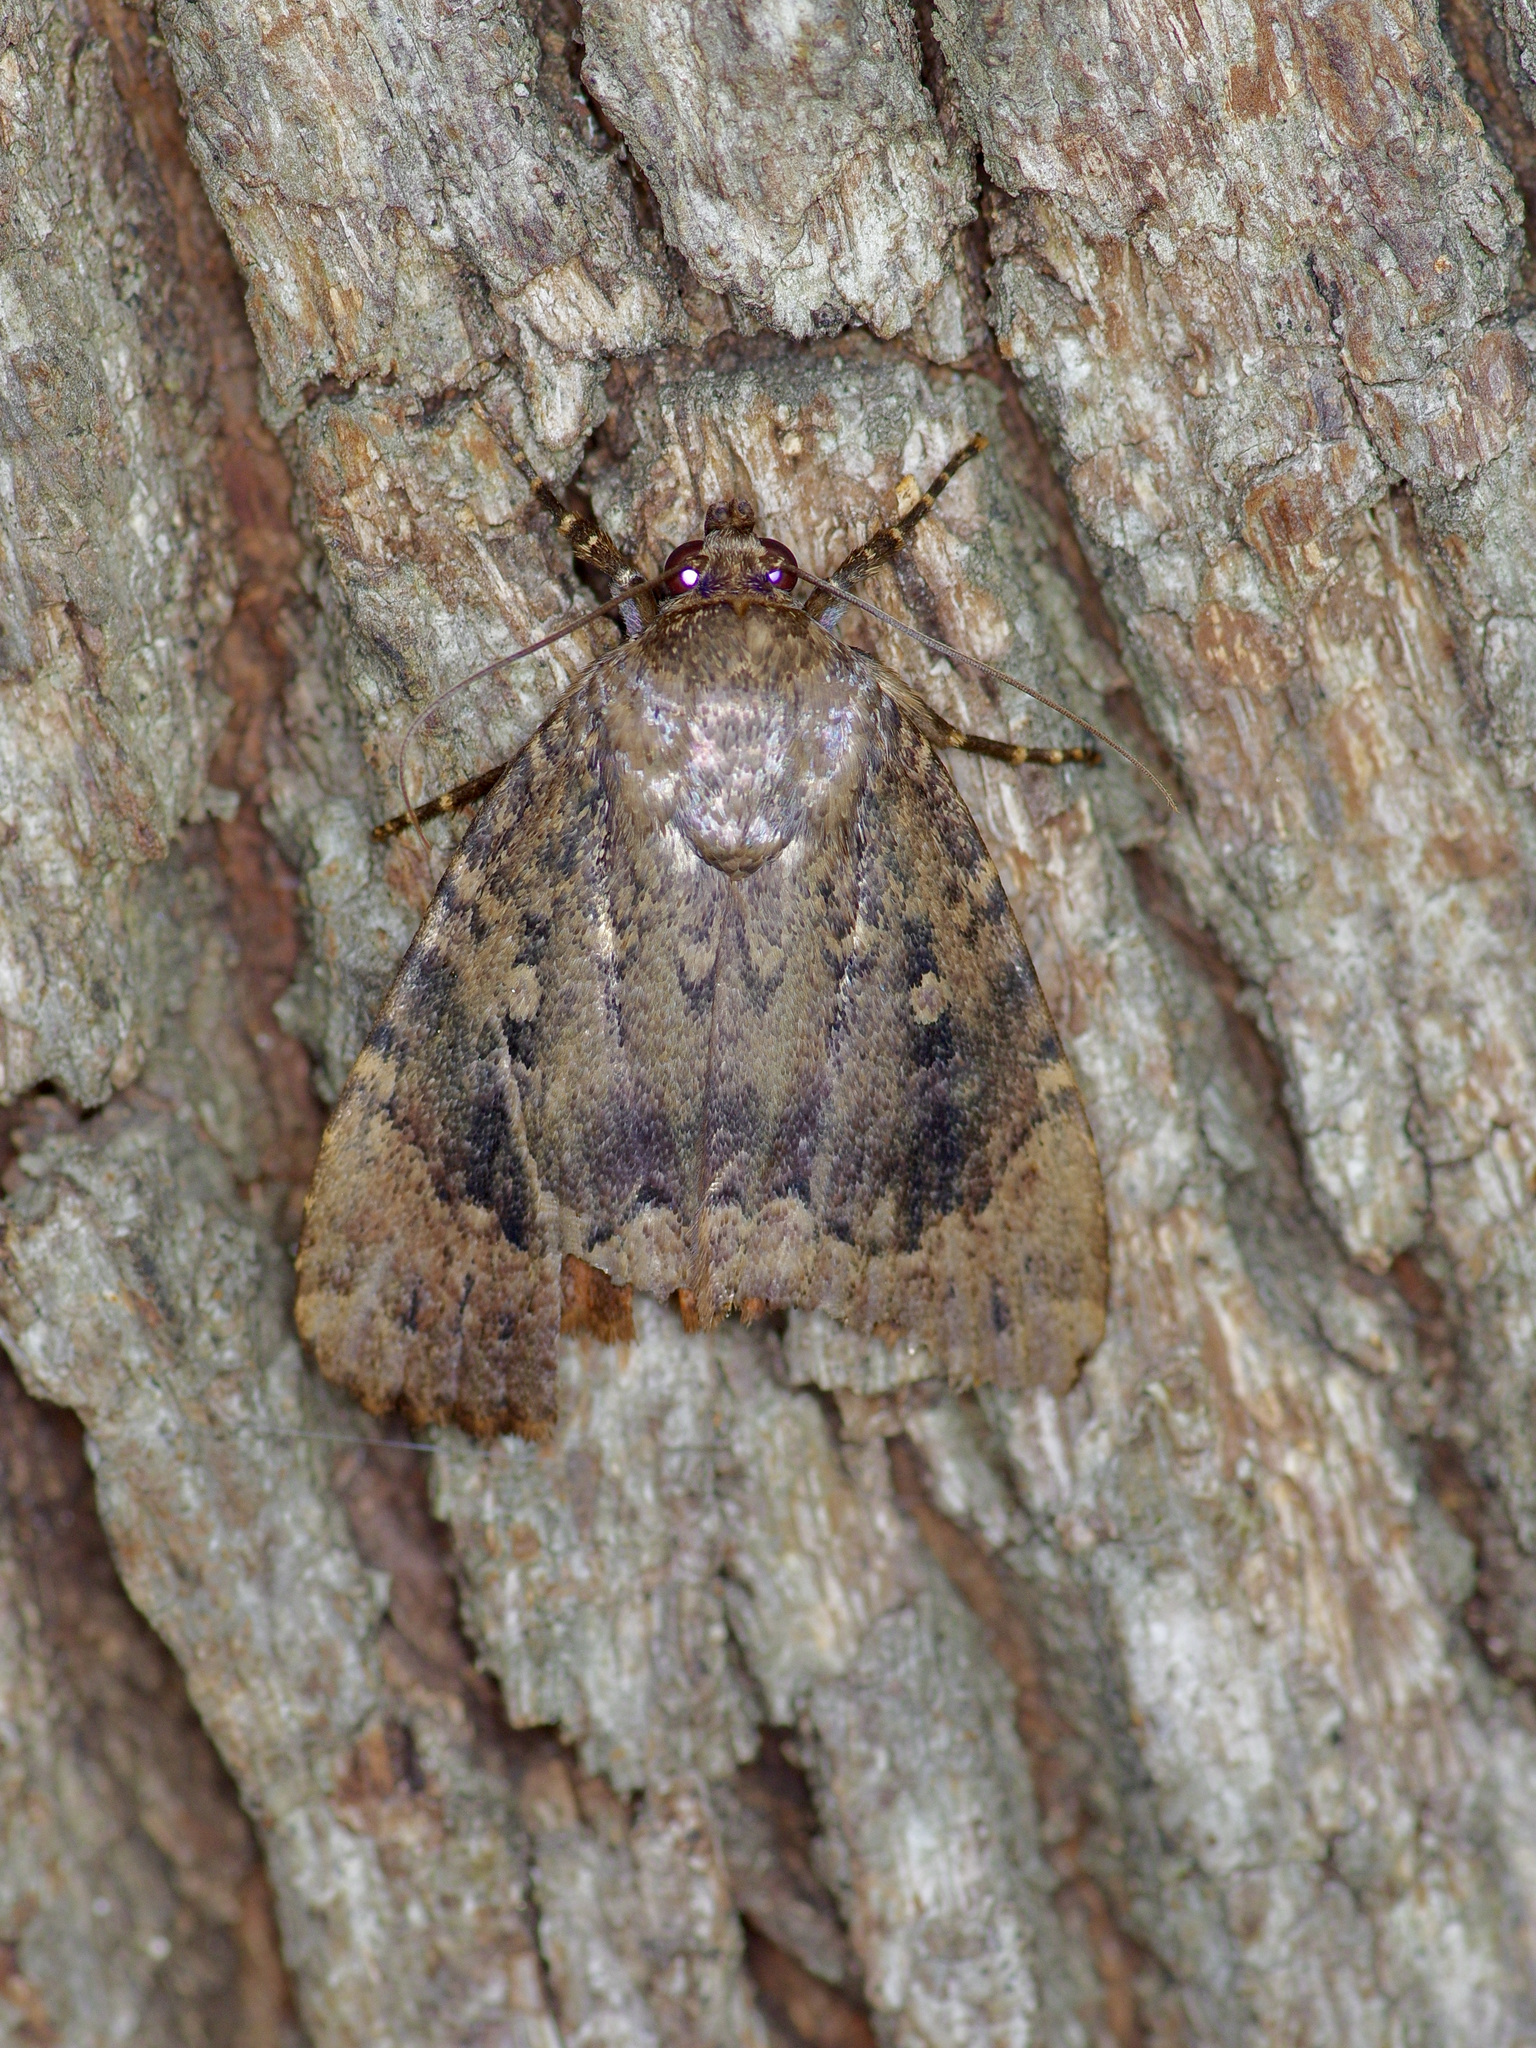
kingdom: Animalia
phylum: Arthropoda
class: Insecta
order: Lepidoptera
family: Noctuidae
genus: Amphipyra
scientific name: Amphipyra pyramidoides
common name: American copper underwing
